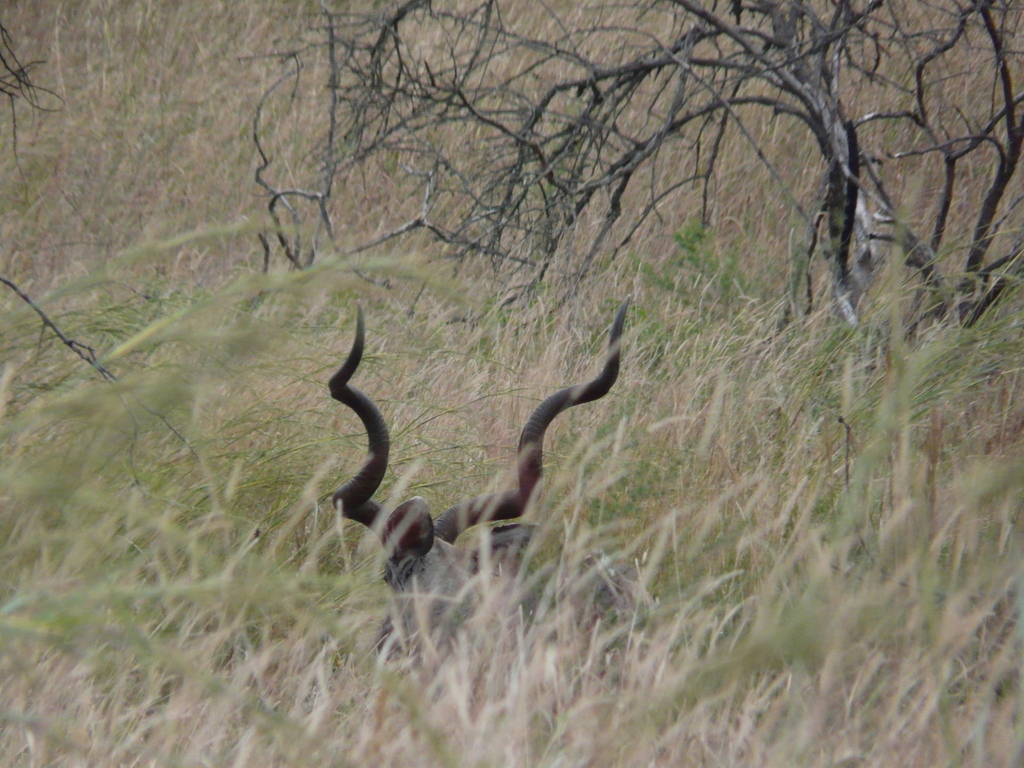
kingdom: Animalia
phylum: Chordata
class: Mammalia
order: Artiodactyla
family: Bovidae
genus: Tragelaphus
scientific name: Tragelaphus strepsiceros
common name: Greater kudu
